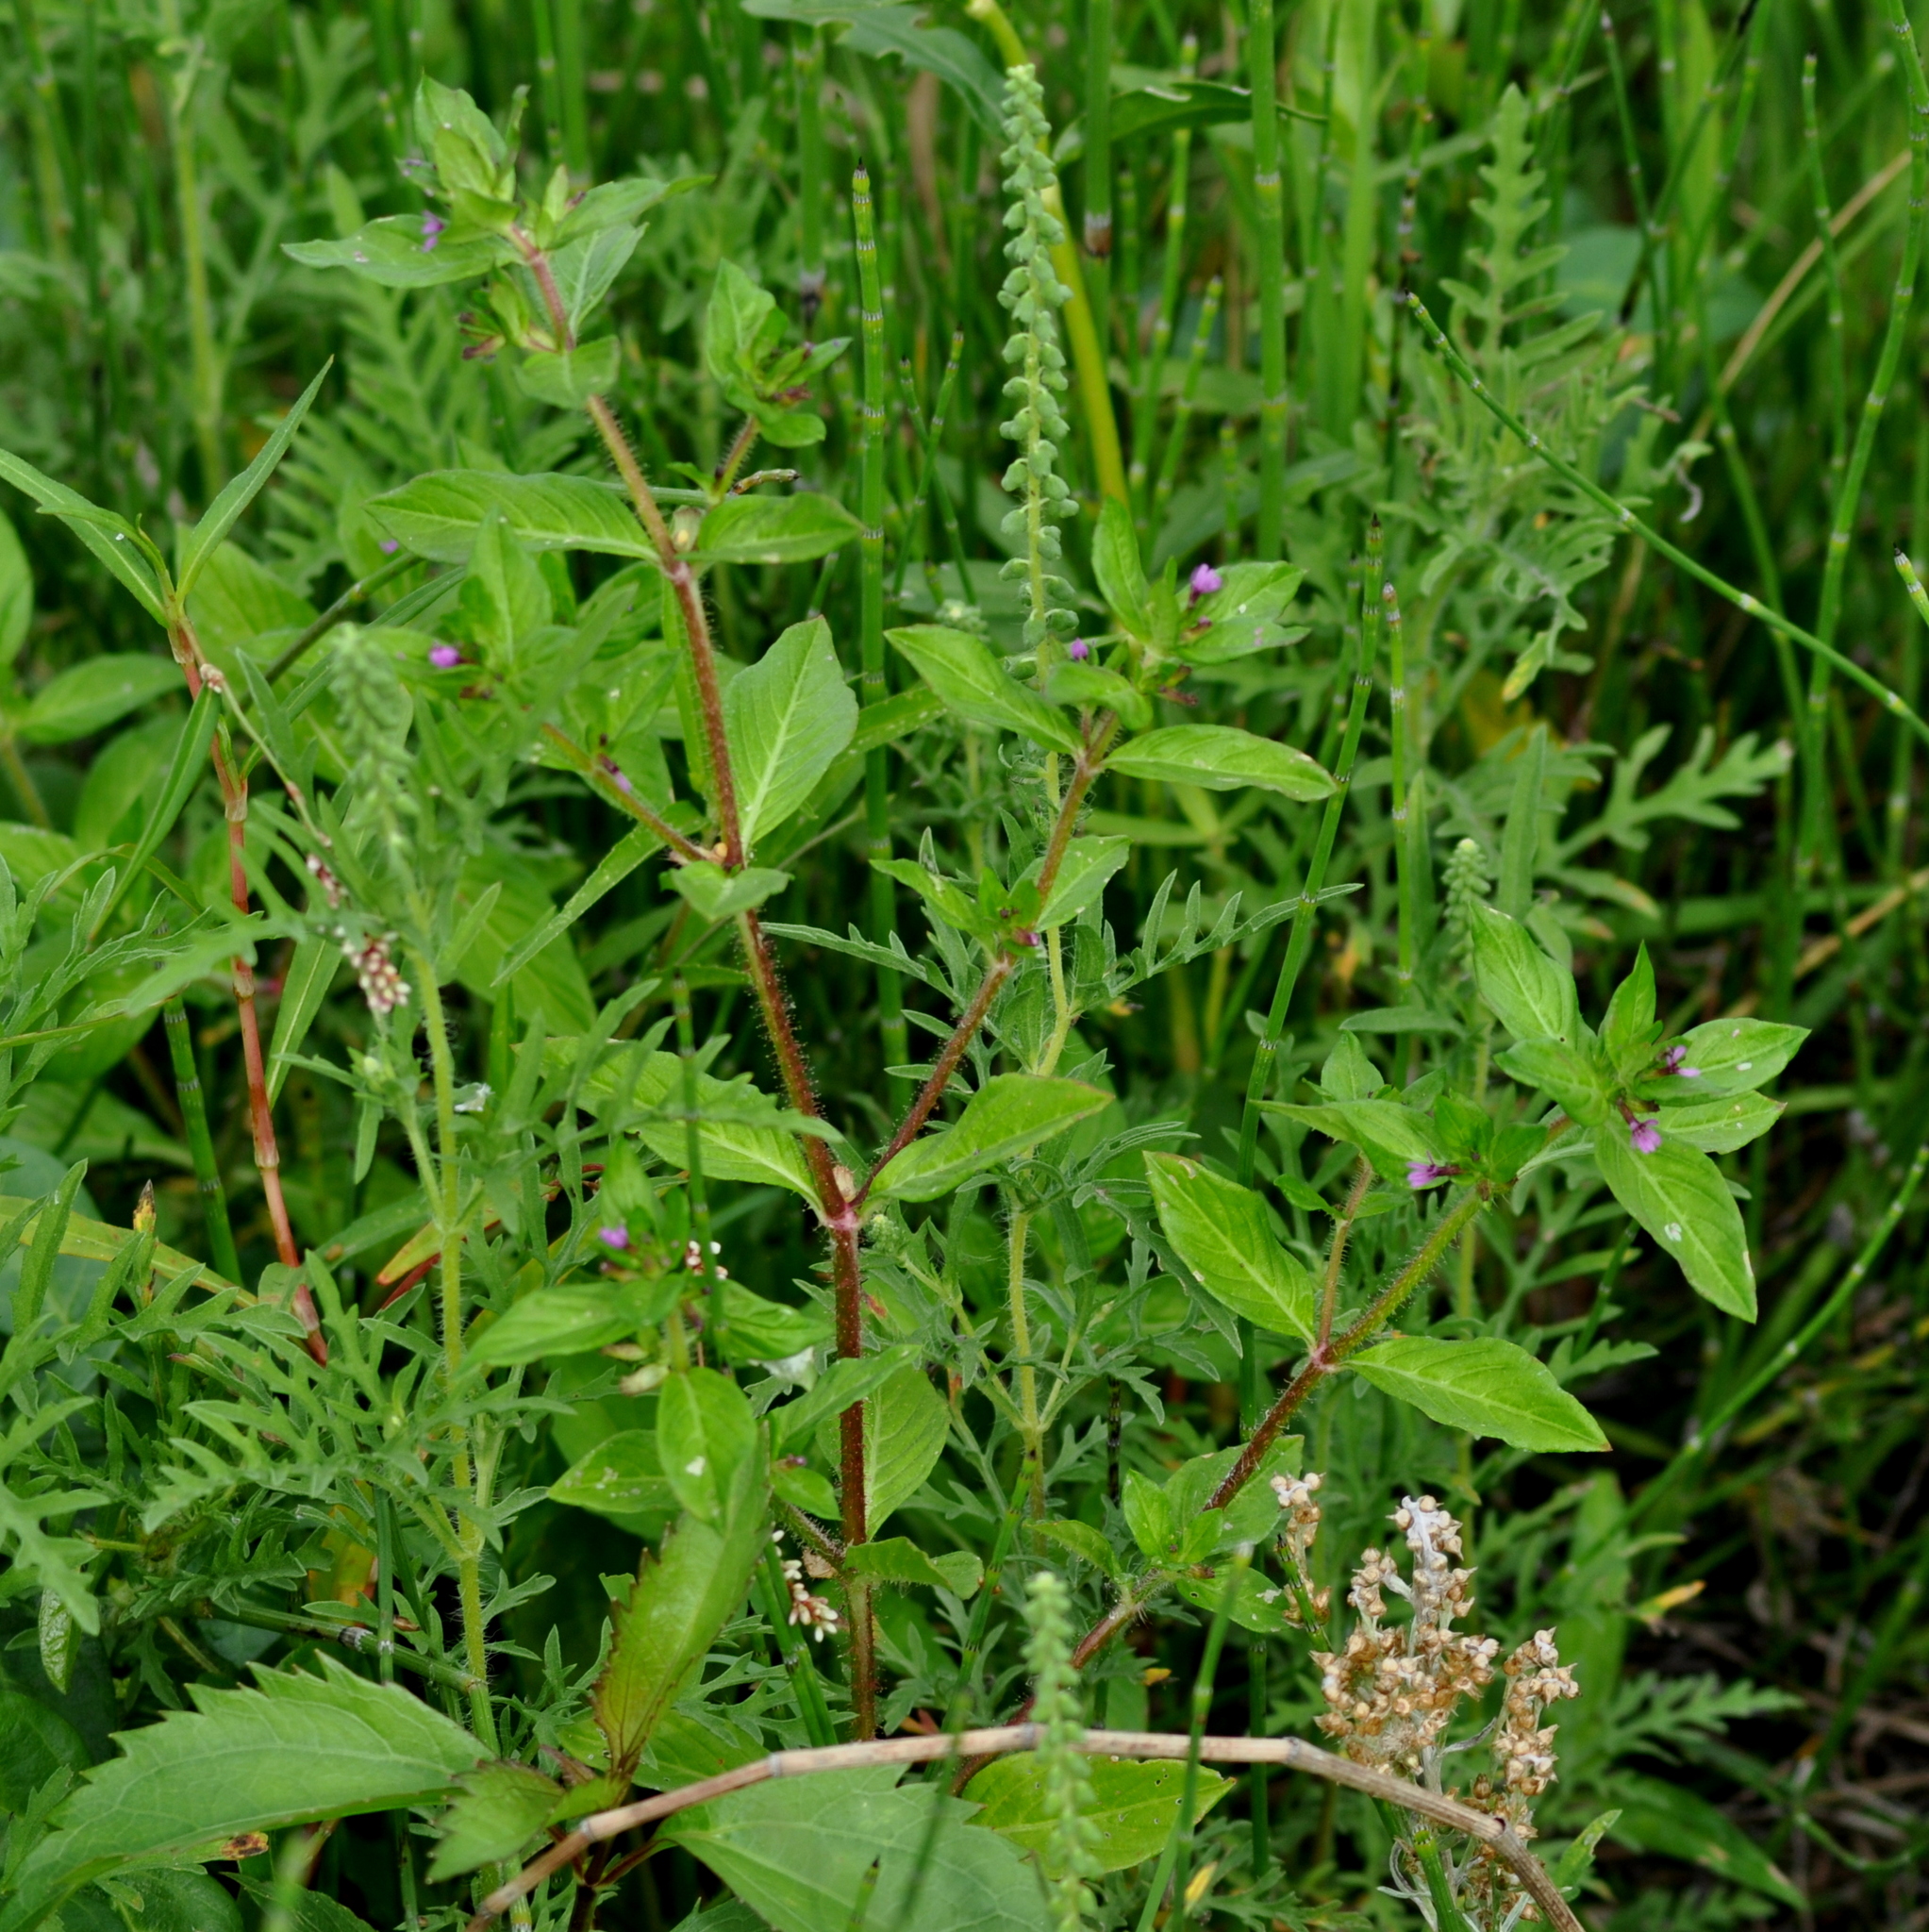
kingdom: Plantae
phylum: Tracheophyta
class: Magnoliopsida
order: Myrtales
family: Lythraceae
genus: Cuphea
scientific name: Cuphea carthagenensis
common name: Colombian waxweed
